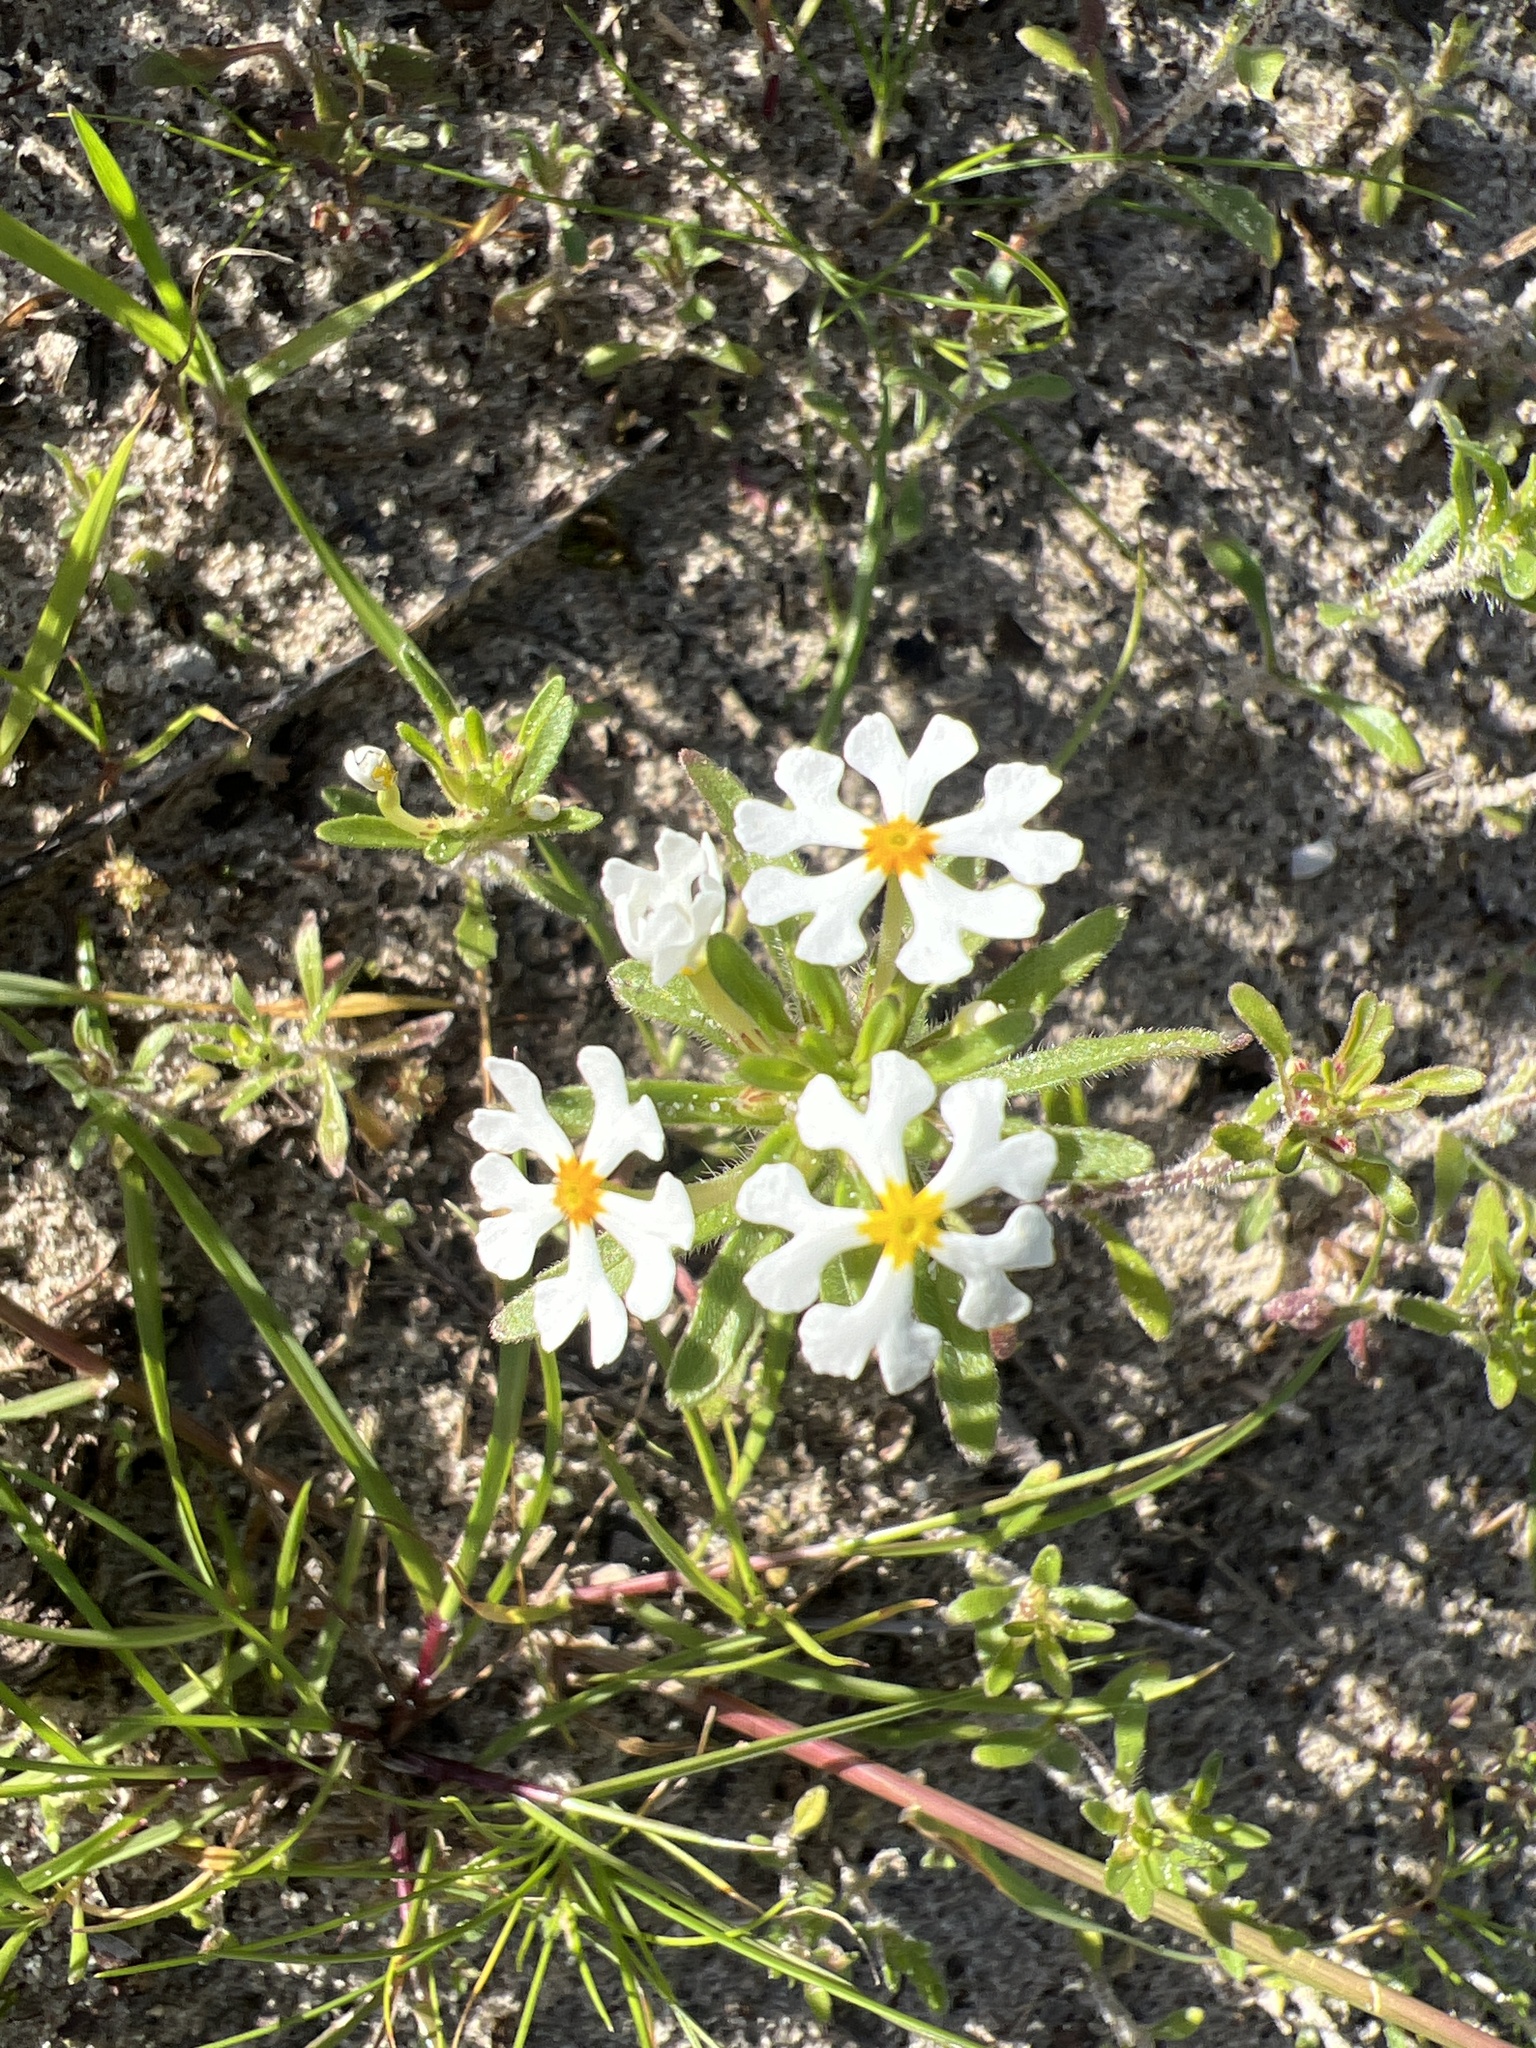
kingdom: Plantae
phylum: Tracheophyta
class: Magnoliopsida
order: Lamiales
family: Scrophulariaceae
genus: Zaluzianskya
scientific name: Zaluzianskya villosa
